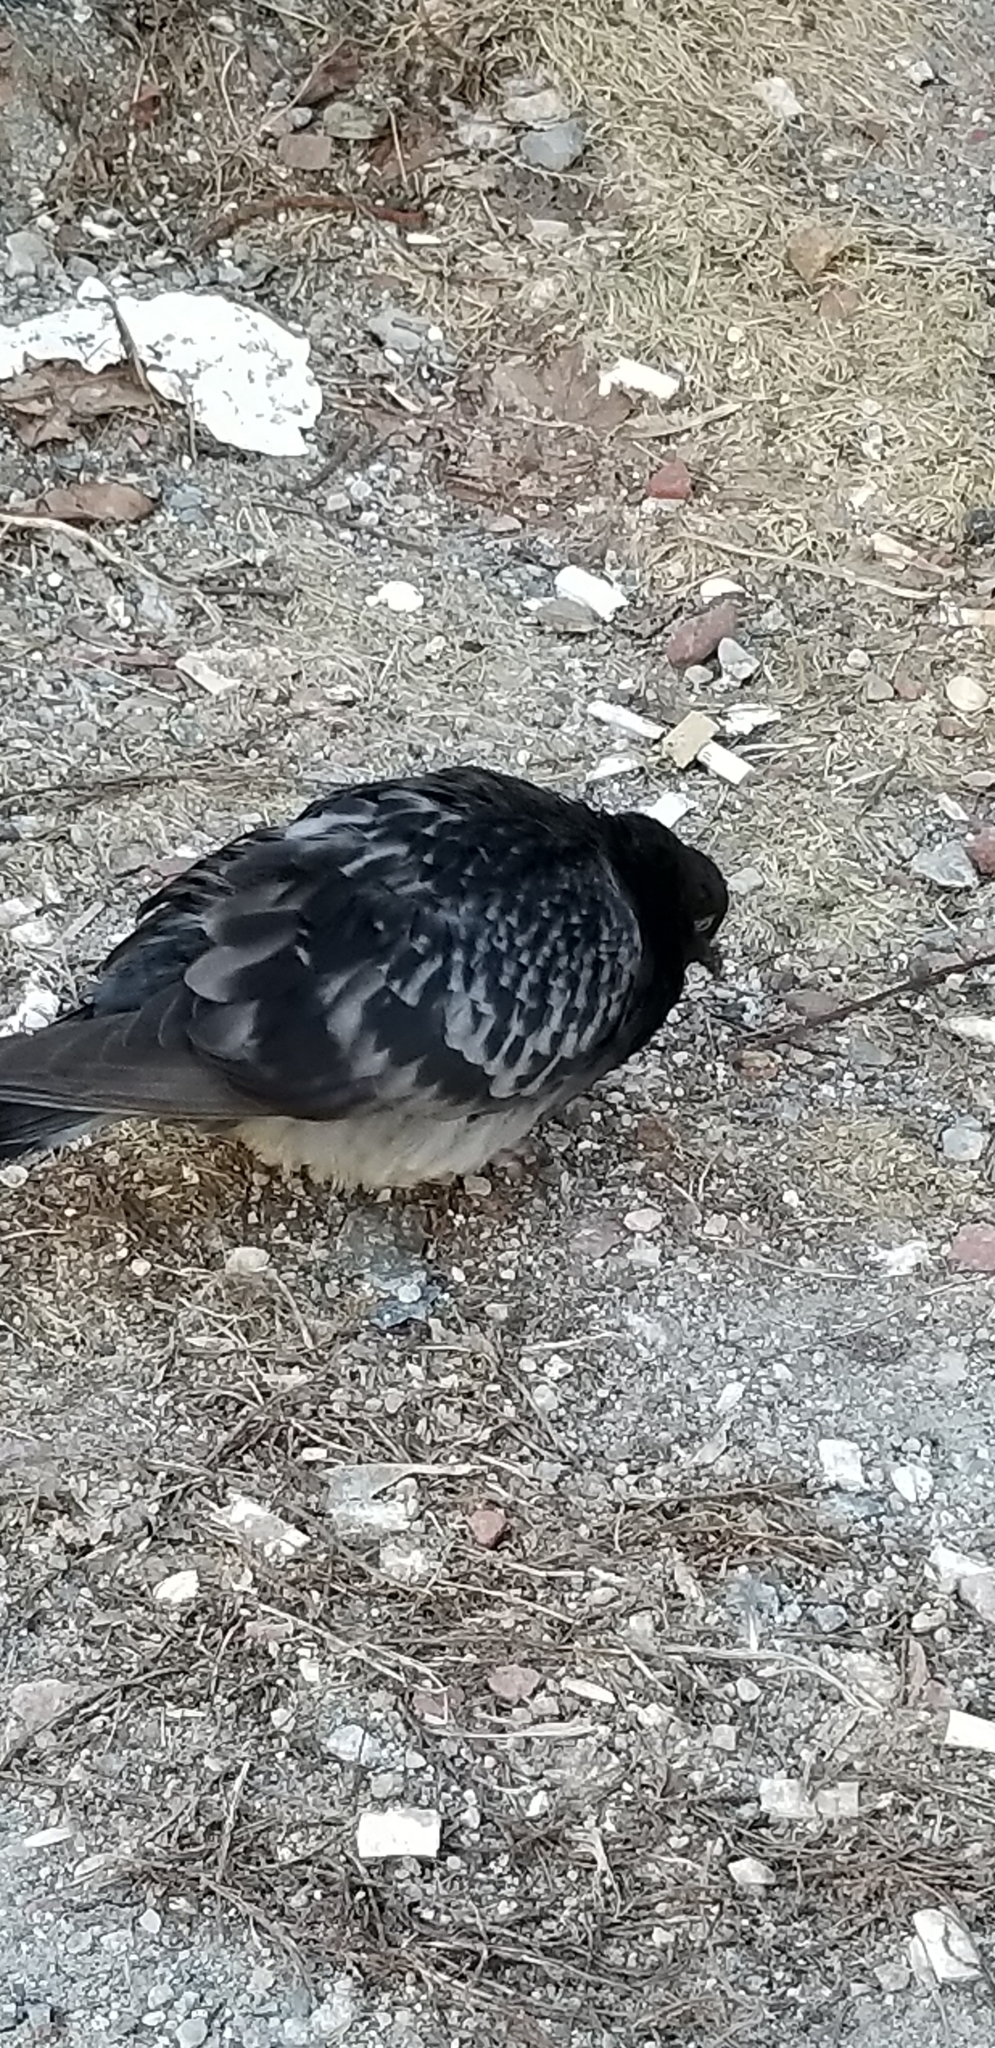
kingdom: Animalia
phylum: Chordata
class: Aves
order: Columbiformes
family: Columbidae
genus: Columba
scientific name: Columba livia
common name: Rock pigeon
